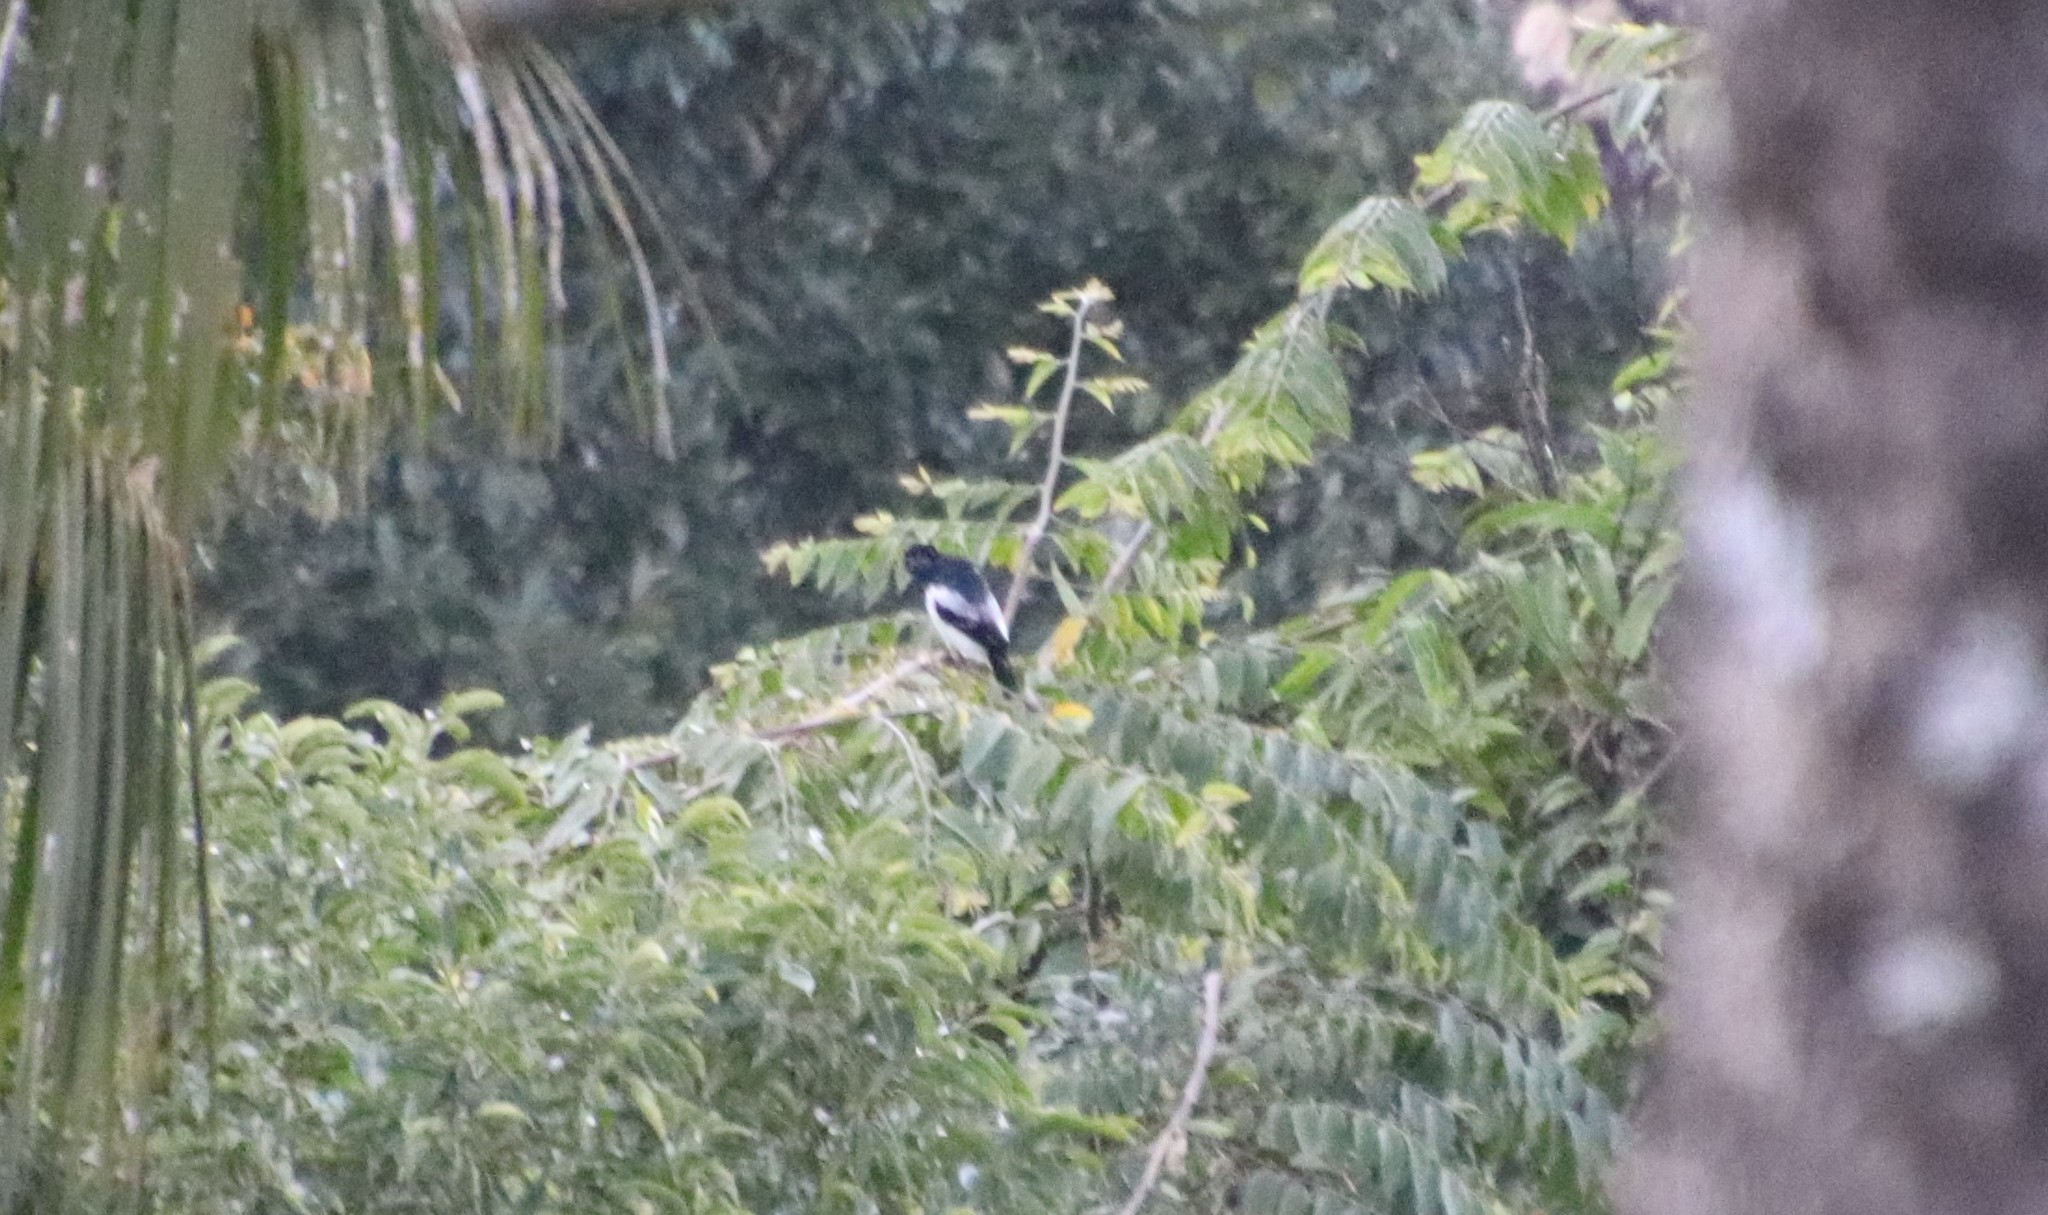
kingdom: Animalia
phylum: Chordata
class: Aves
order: Passeriformes
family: Thraupidae
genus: Cissopis
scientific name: Cissopis leverianus
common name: Magpie tanager
